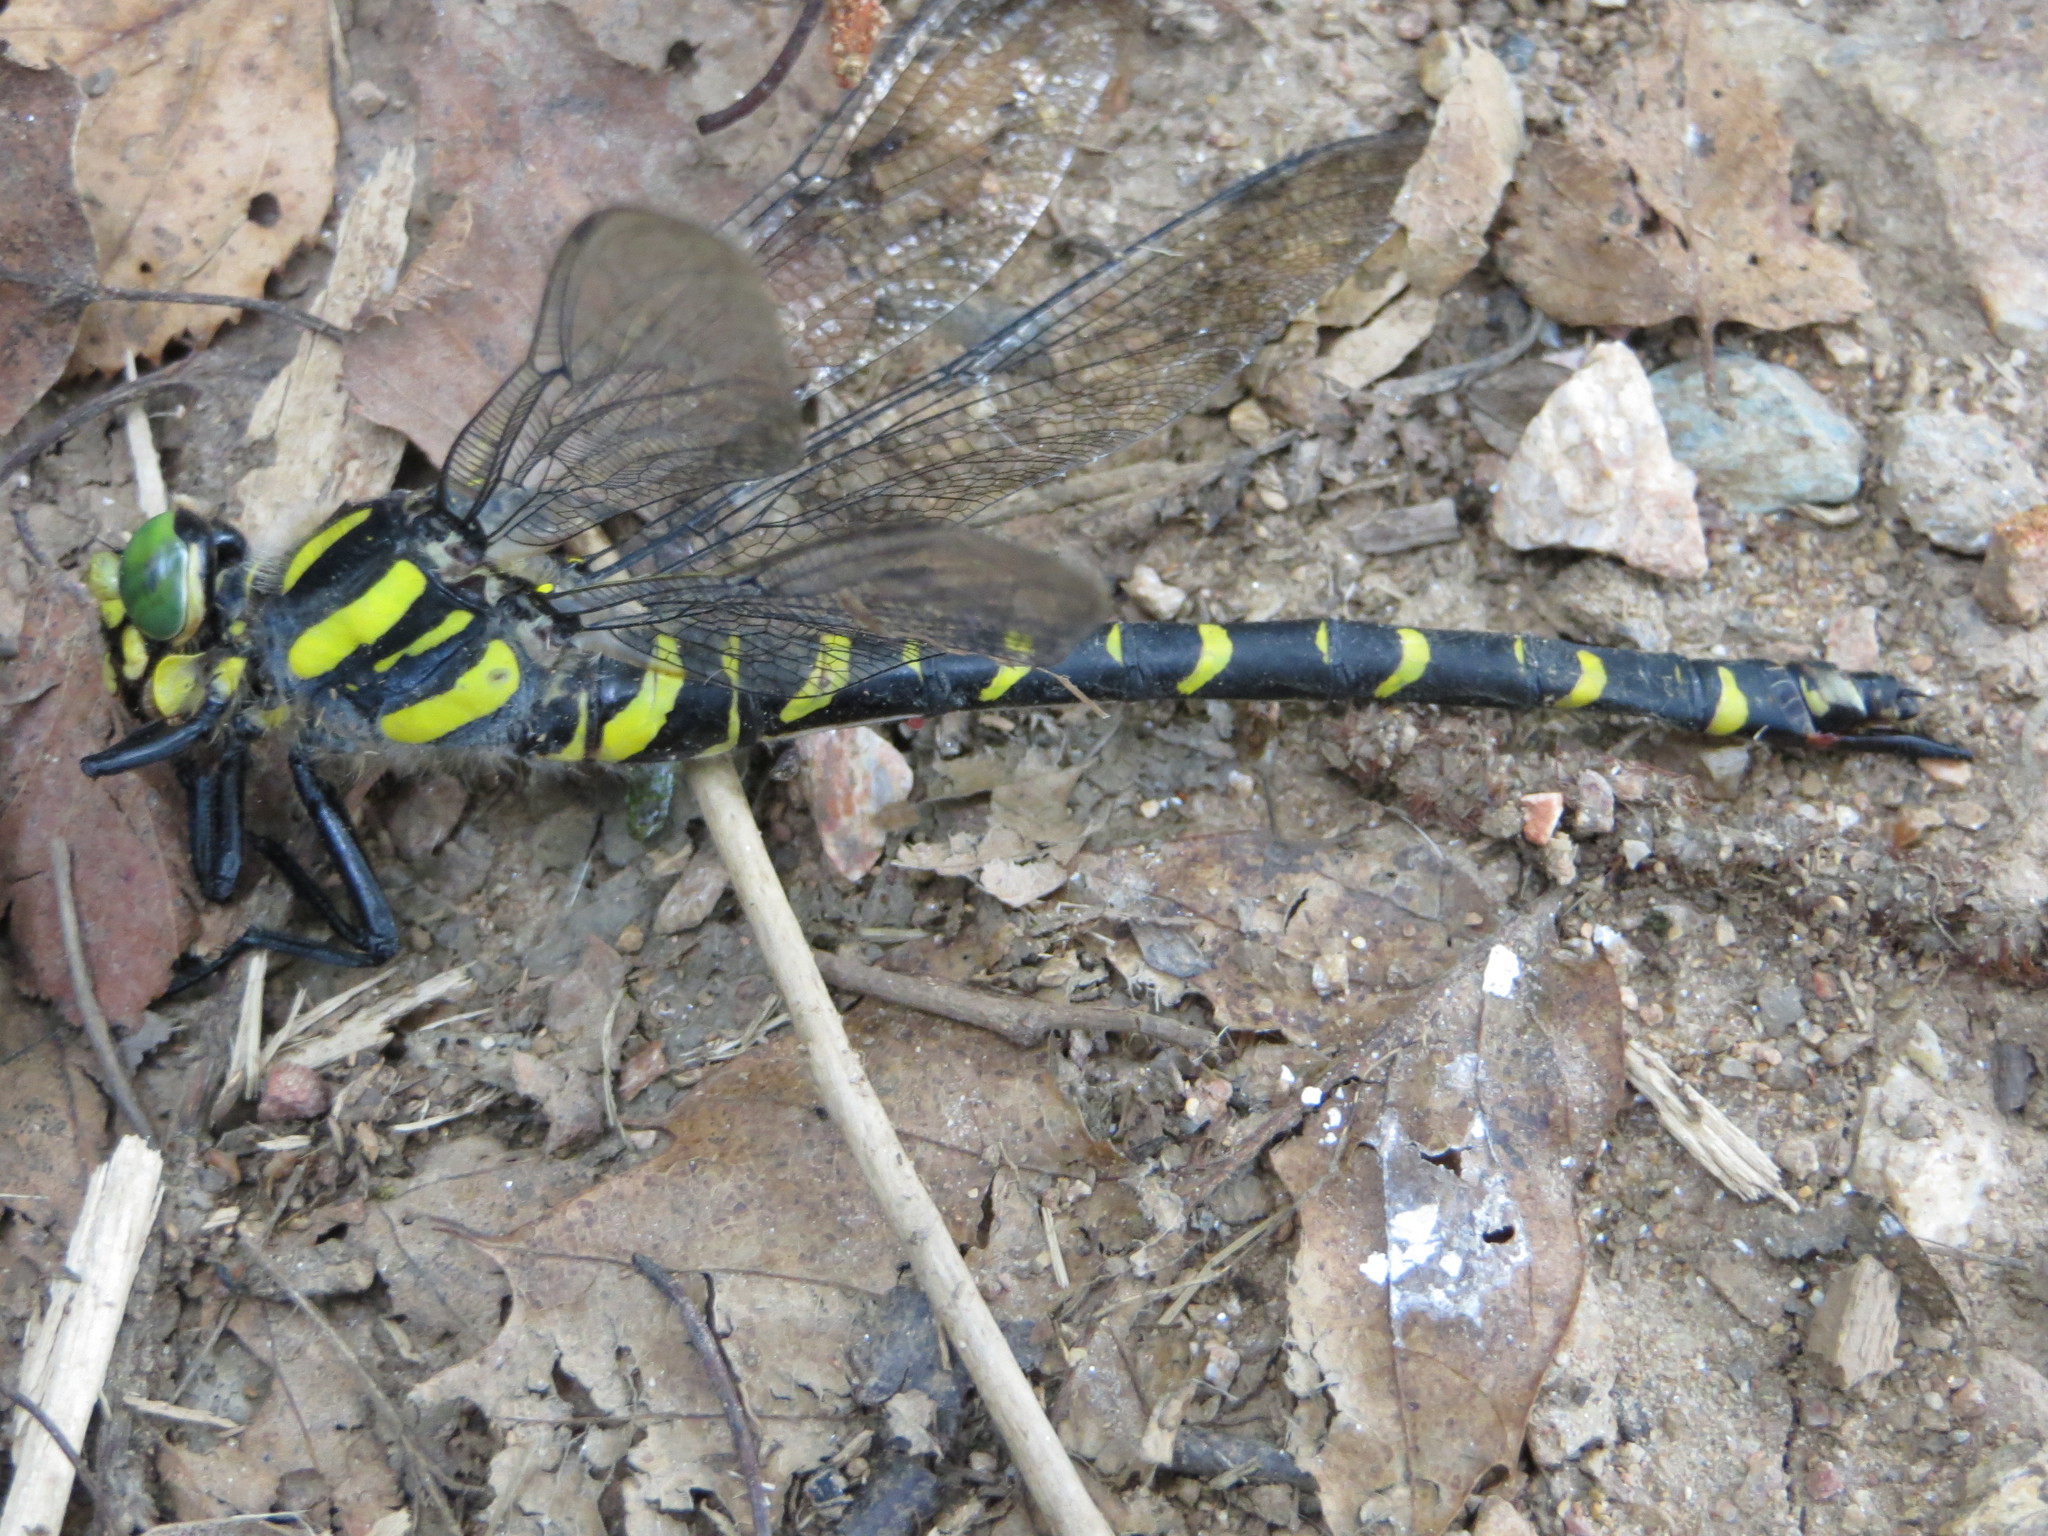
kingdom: Animalia
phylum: Arthropoda
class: Insecta
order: Odonata
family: Cordulegastridae
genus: Cordulegaster
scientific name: Cordulegaster boltonii
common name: Golden-ringed dragonfly
